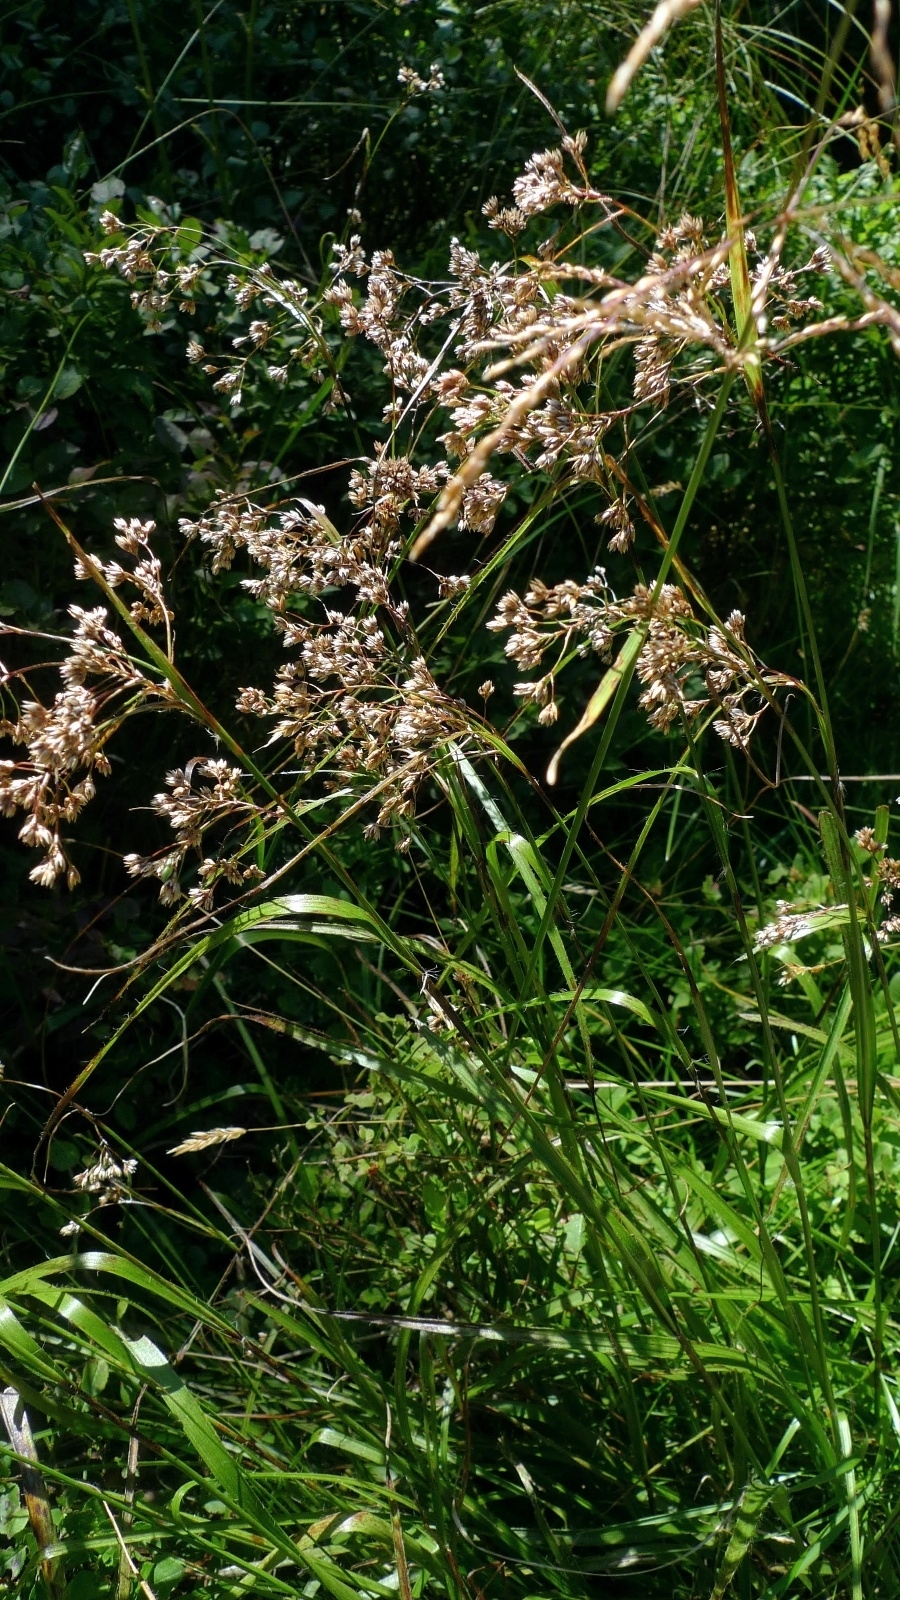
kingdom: Plantae
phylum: Tracheophyta
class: Liliopsida
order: Poales
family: Juncaceae
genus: Luzula
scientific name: Luzula luzuloides
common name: White wood-rush
